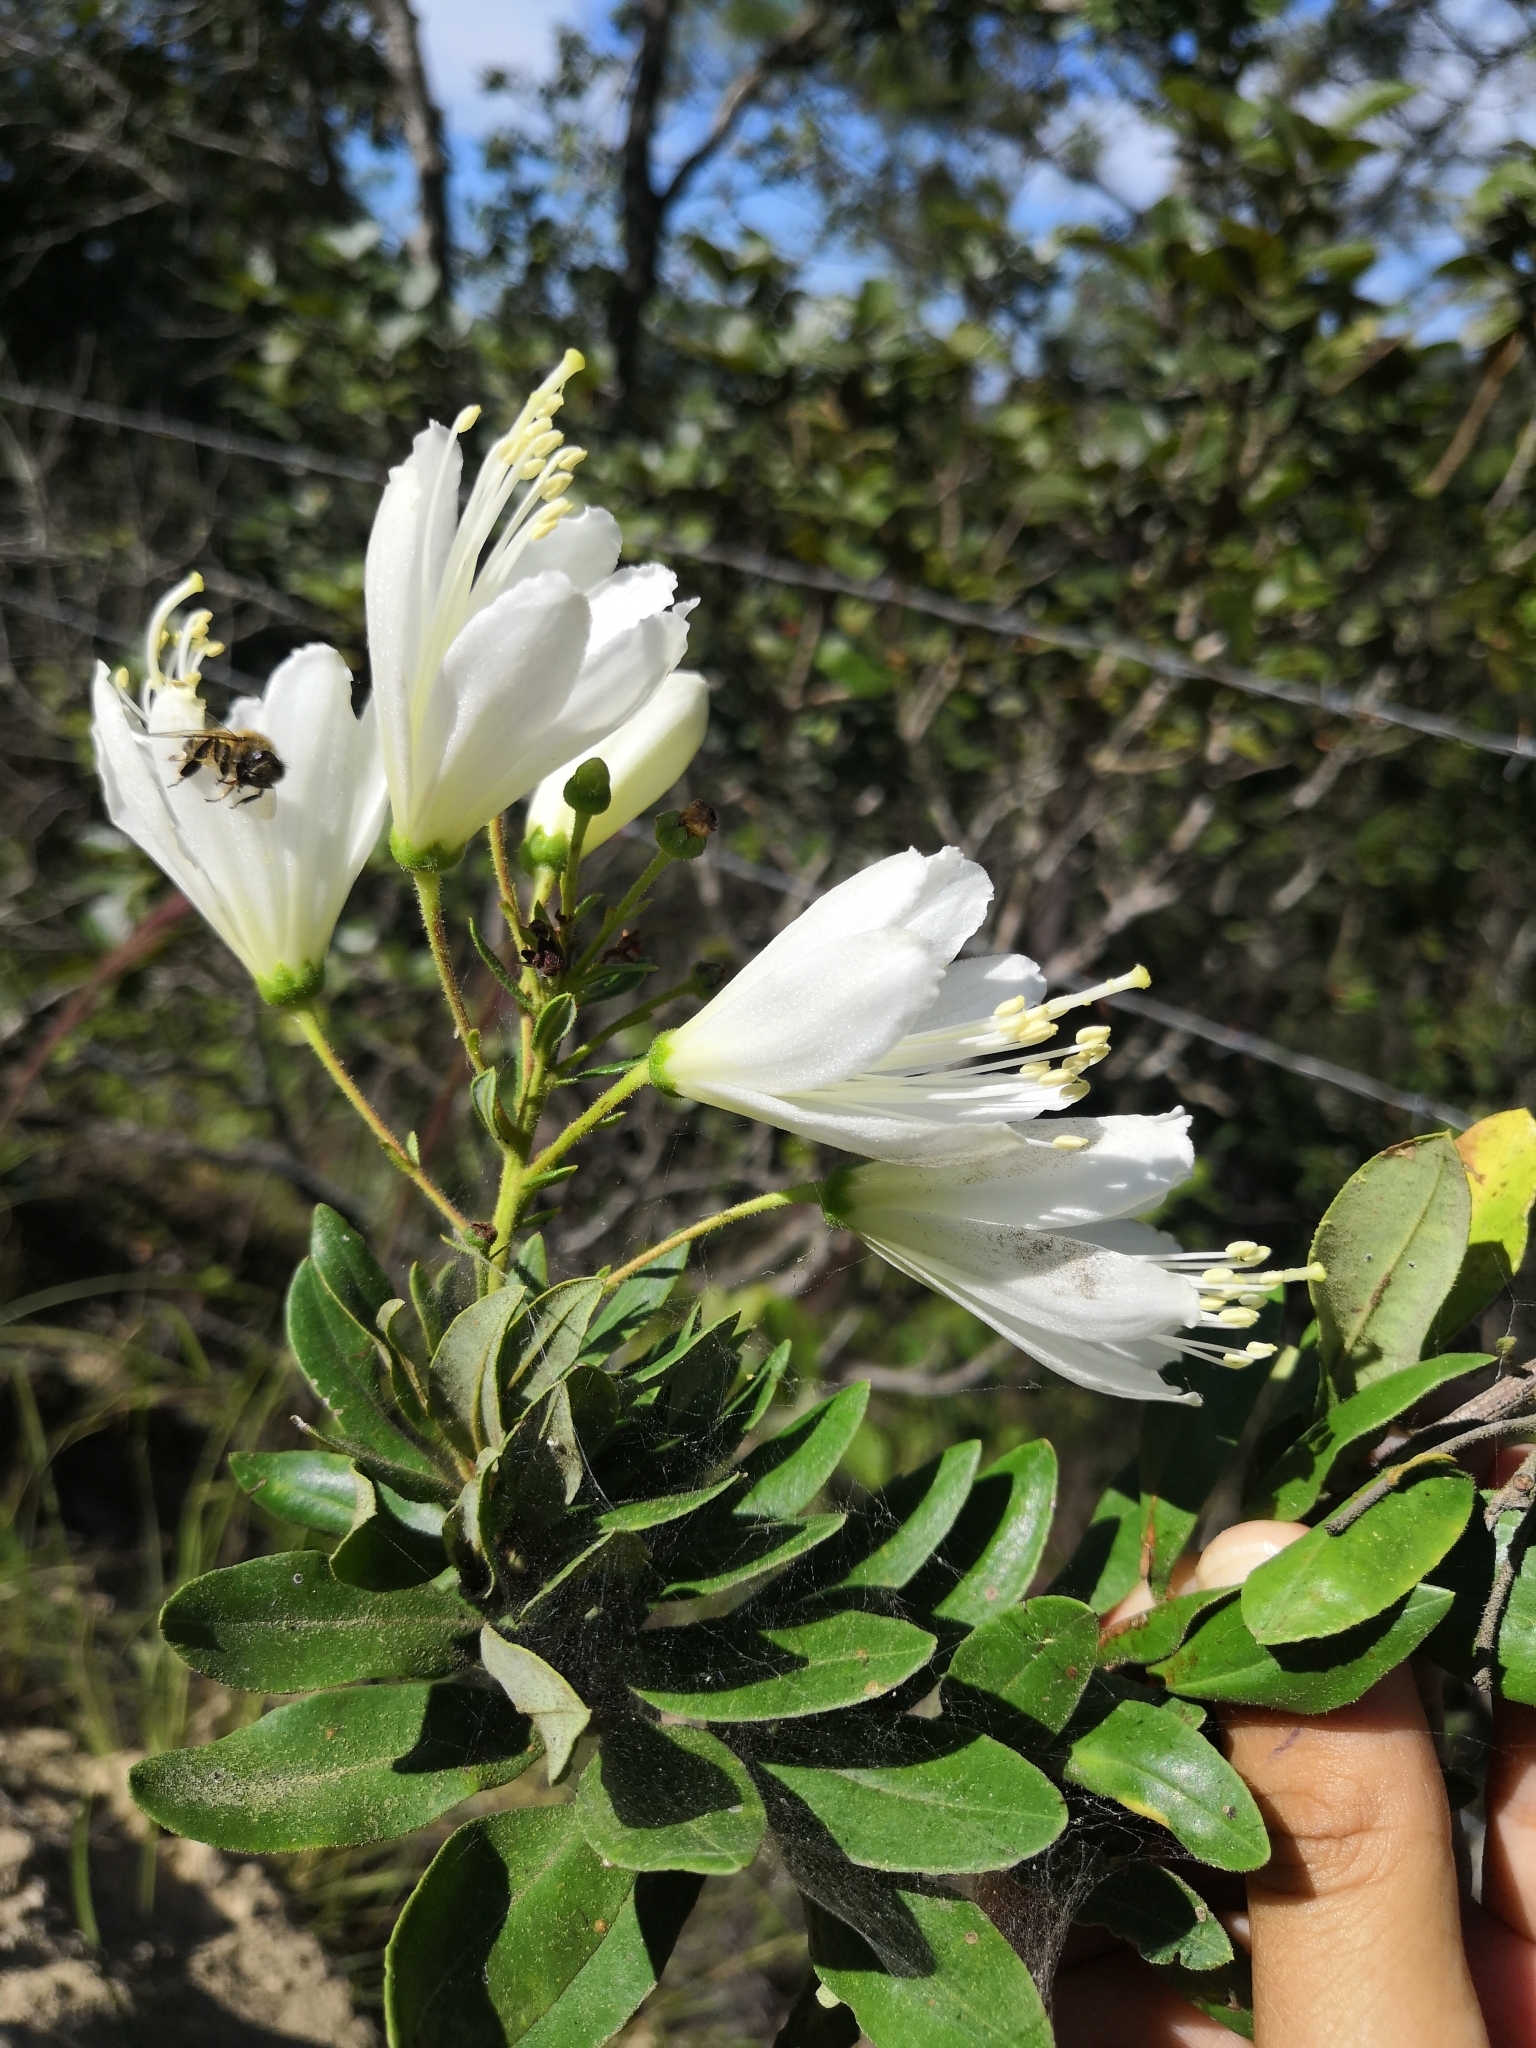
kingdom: Plantae
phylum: Tracheophyta
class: Magnoliopsida
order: Ericales
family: Ericaceae
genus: Bejaria
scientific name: Bejaria aestuans
